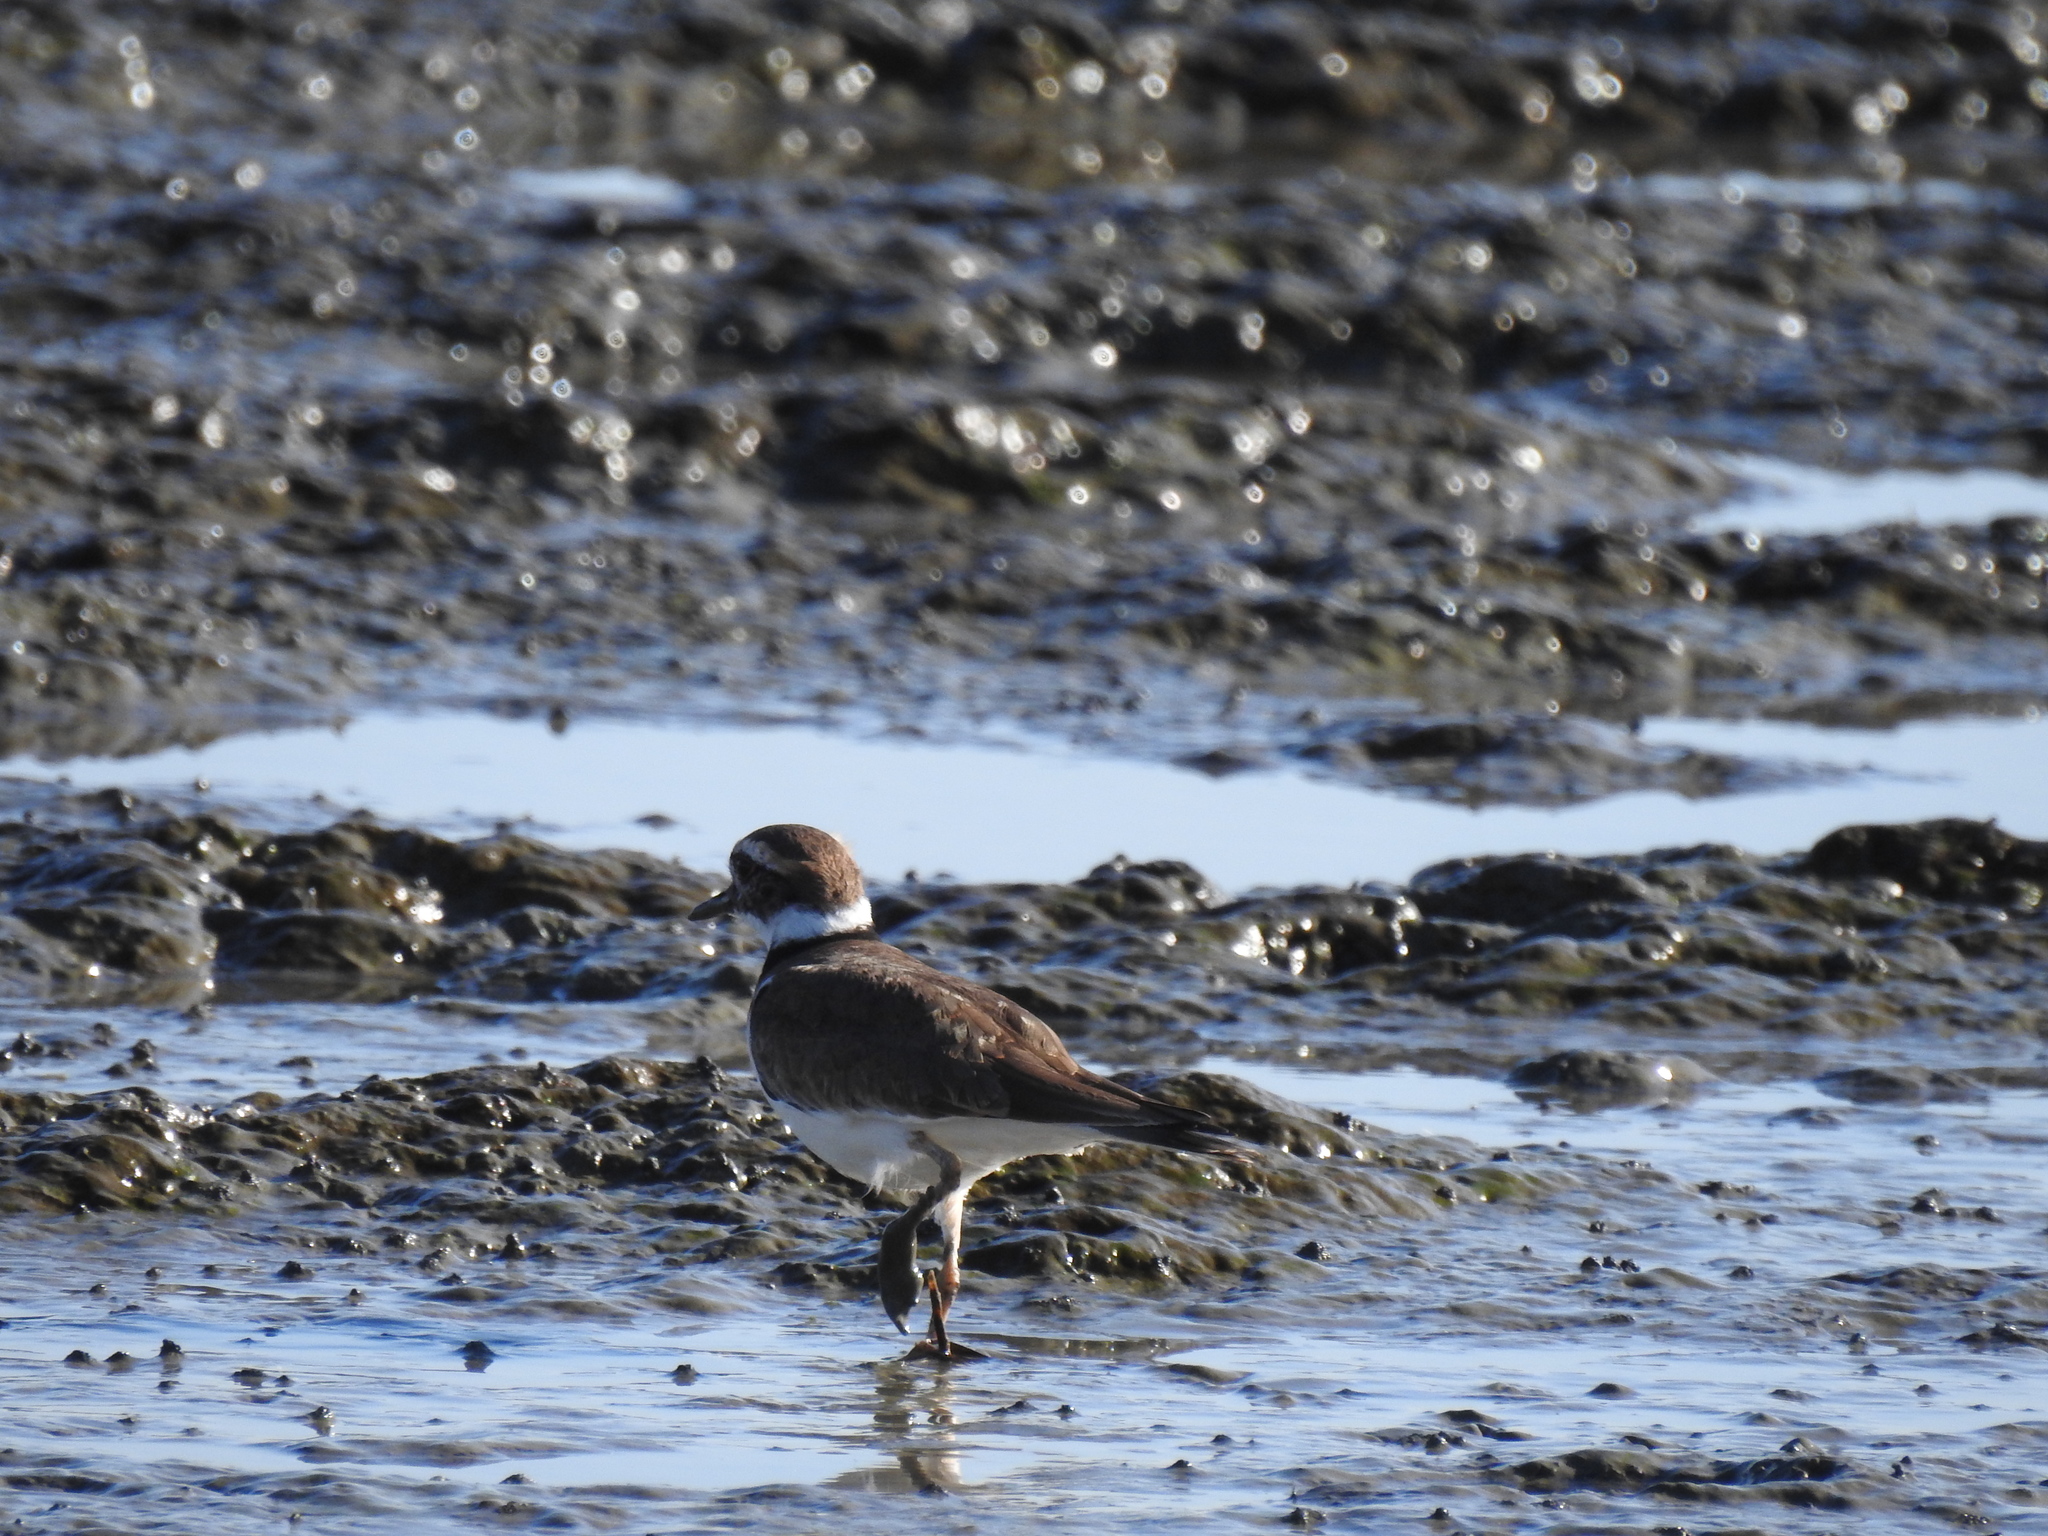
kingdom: Animalia
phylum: Chordata
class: Aves
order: Charadriiformes
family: Charadriidae
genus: Charadrius
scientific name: Charadrius vociferus
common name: Killdeer
